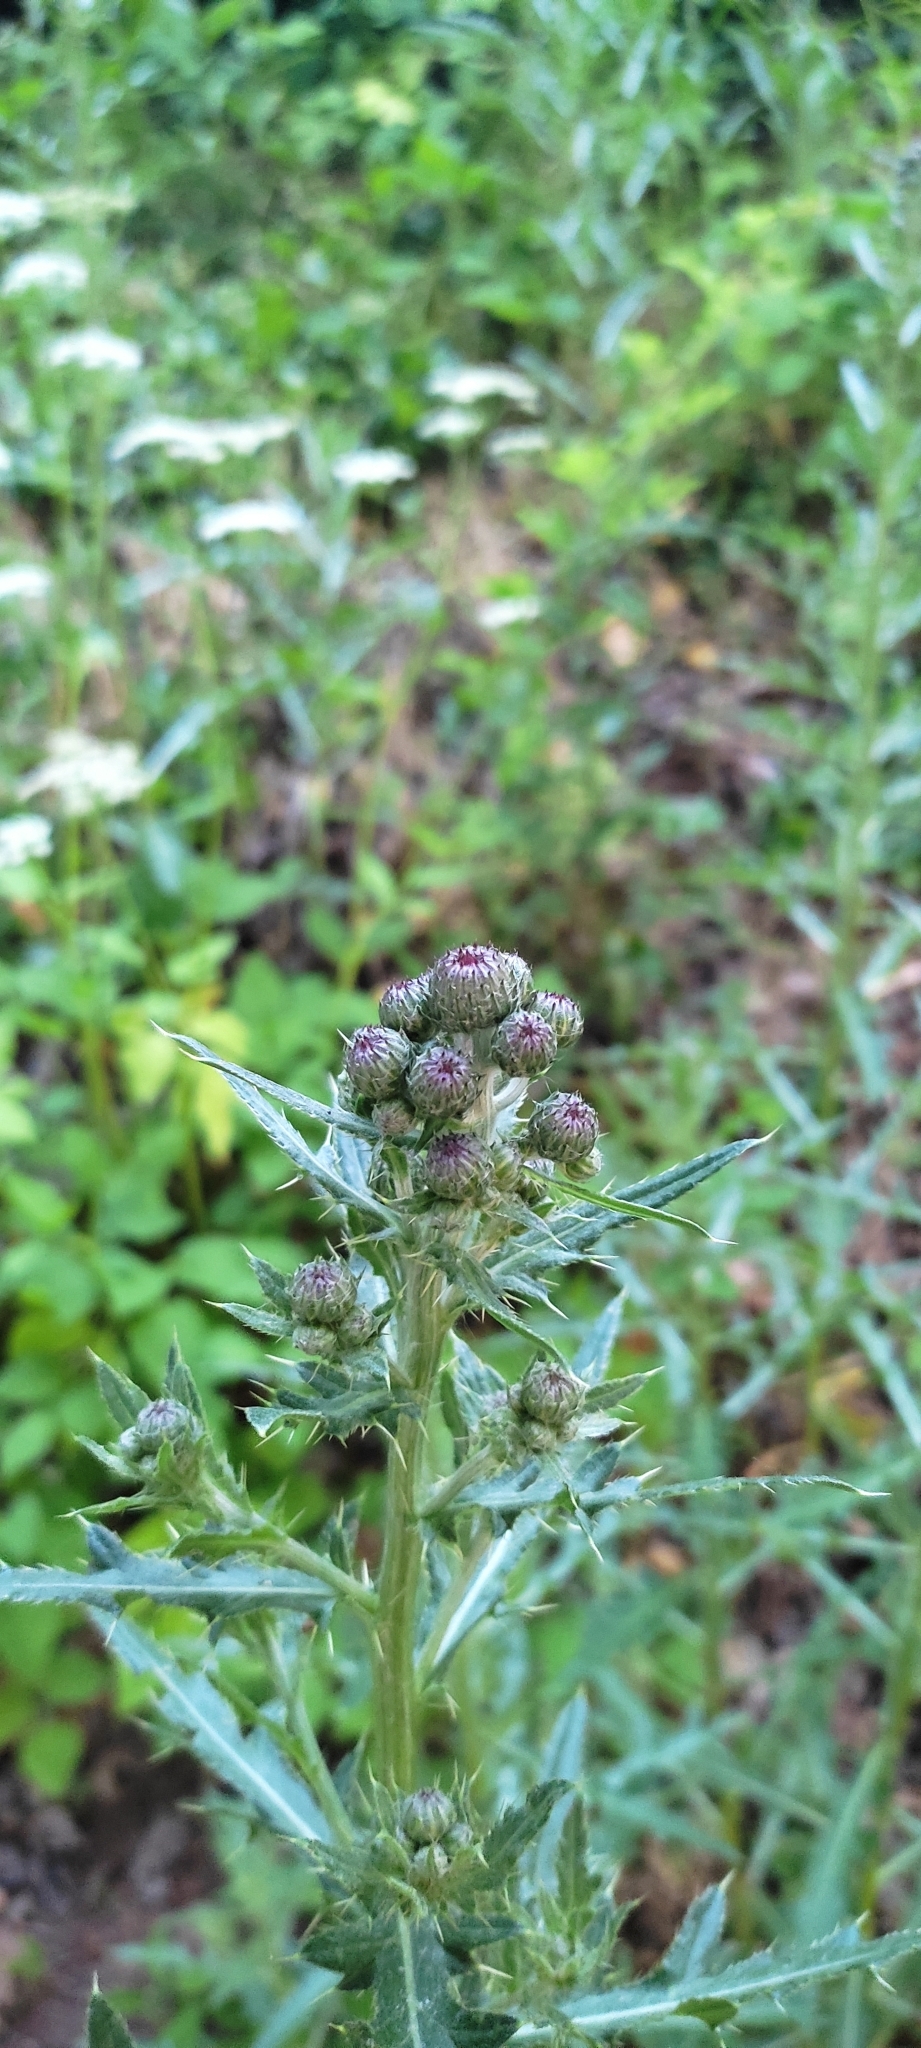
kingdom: Plantae
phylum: Tracheophyta
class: Magnoliopsida
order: Asterales
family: Asteraceae
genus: Cirsium
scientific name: Cirsium arvense
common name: Creeping thistle
